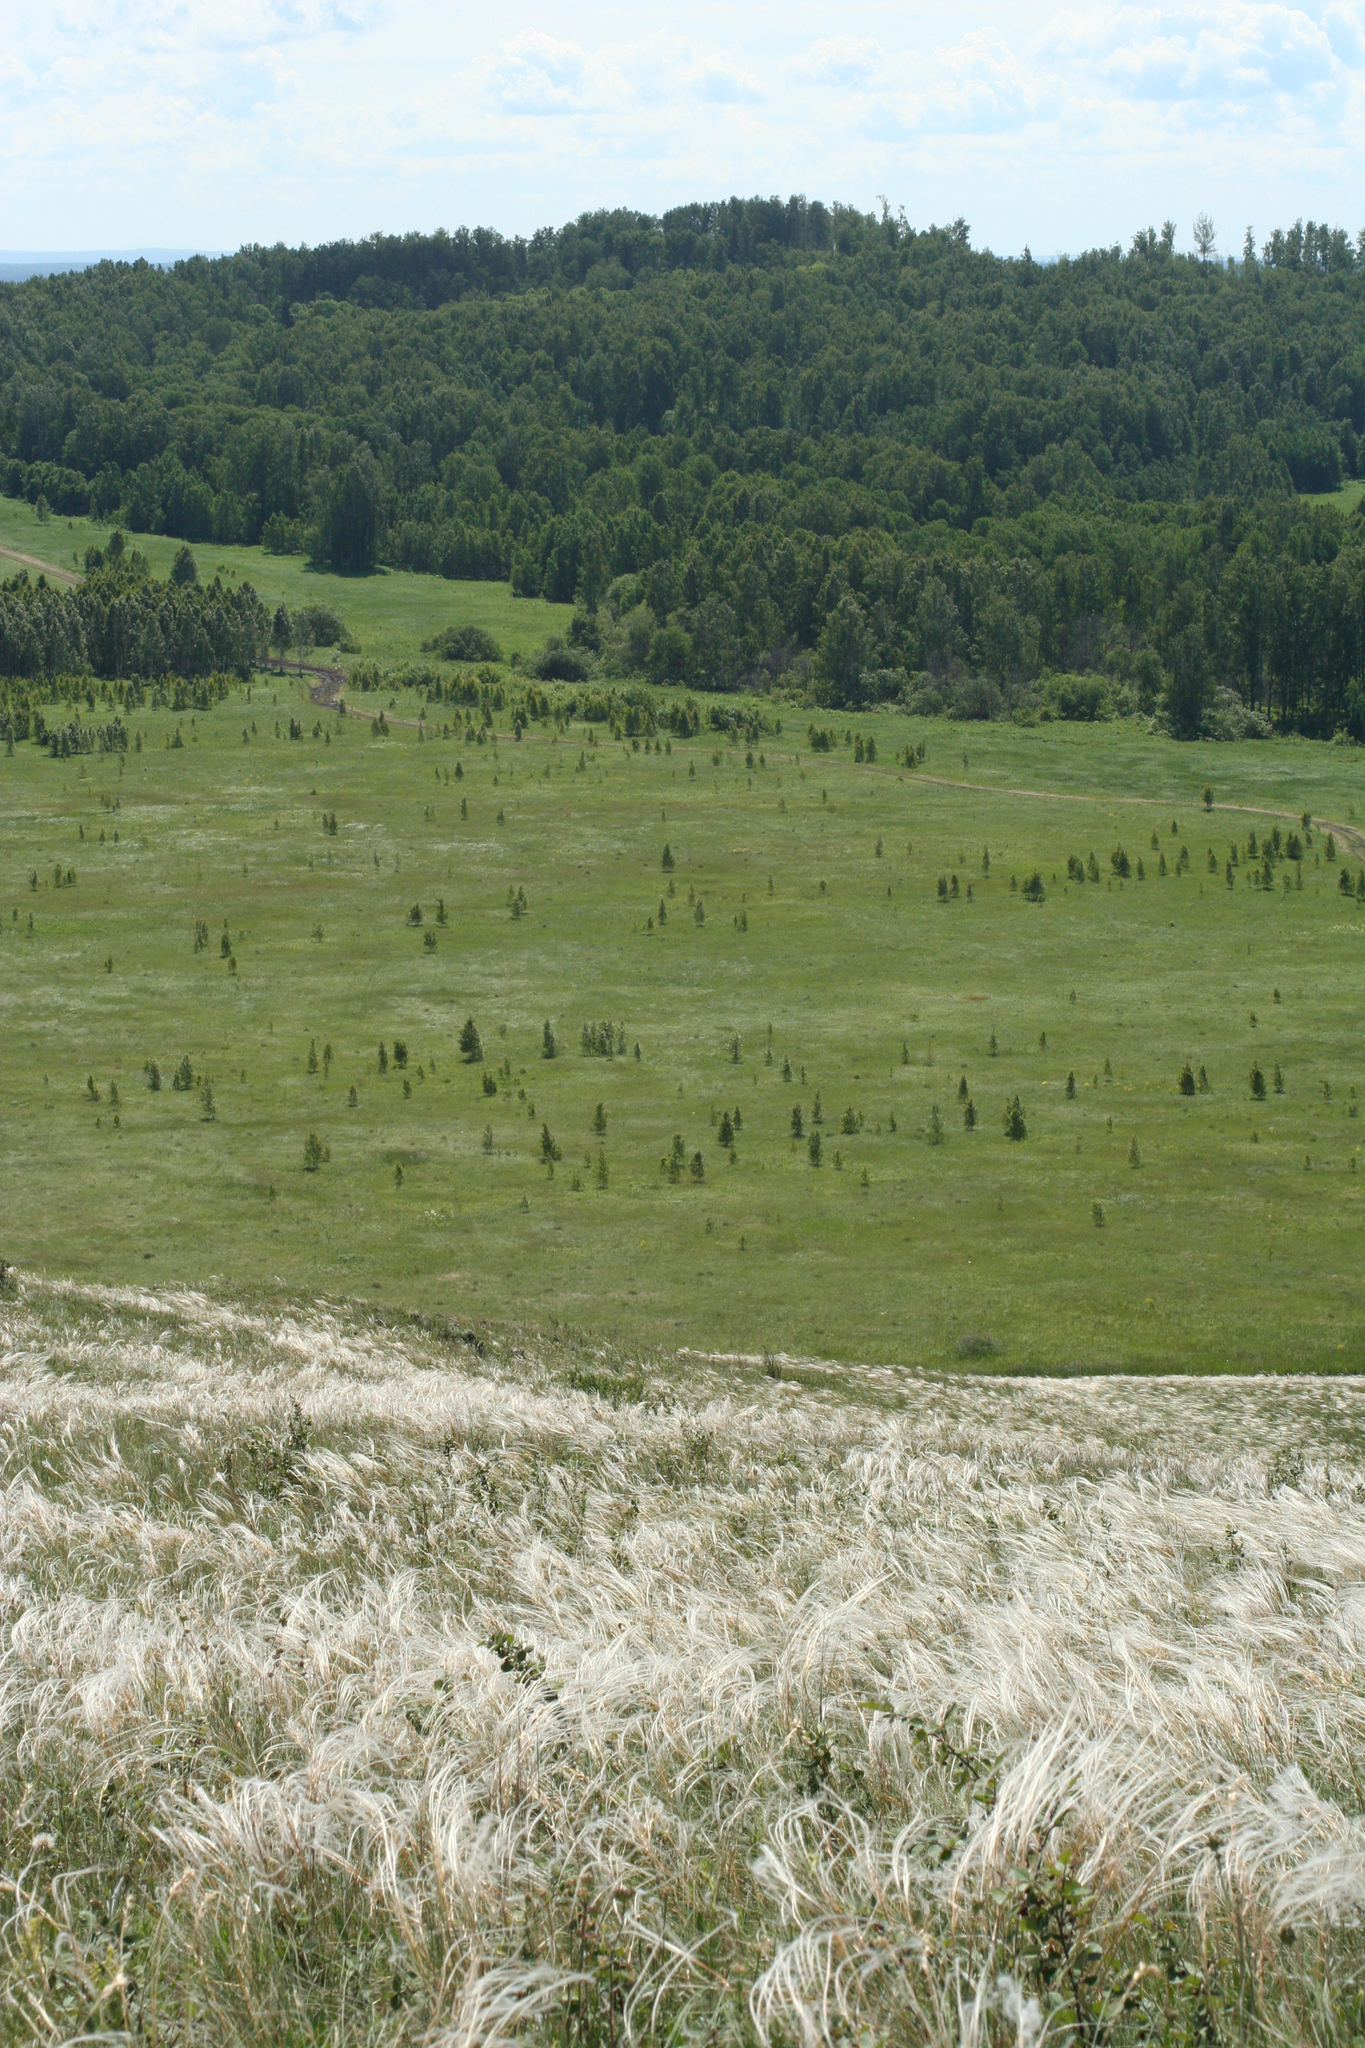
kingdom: Plantae
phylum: Tracheophyta
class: Liliopsida
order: Poales
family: Poaceae
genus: Stipa
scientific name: Stipa pennata
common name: European feather grass
